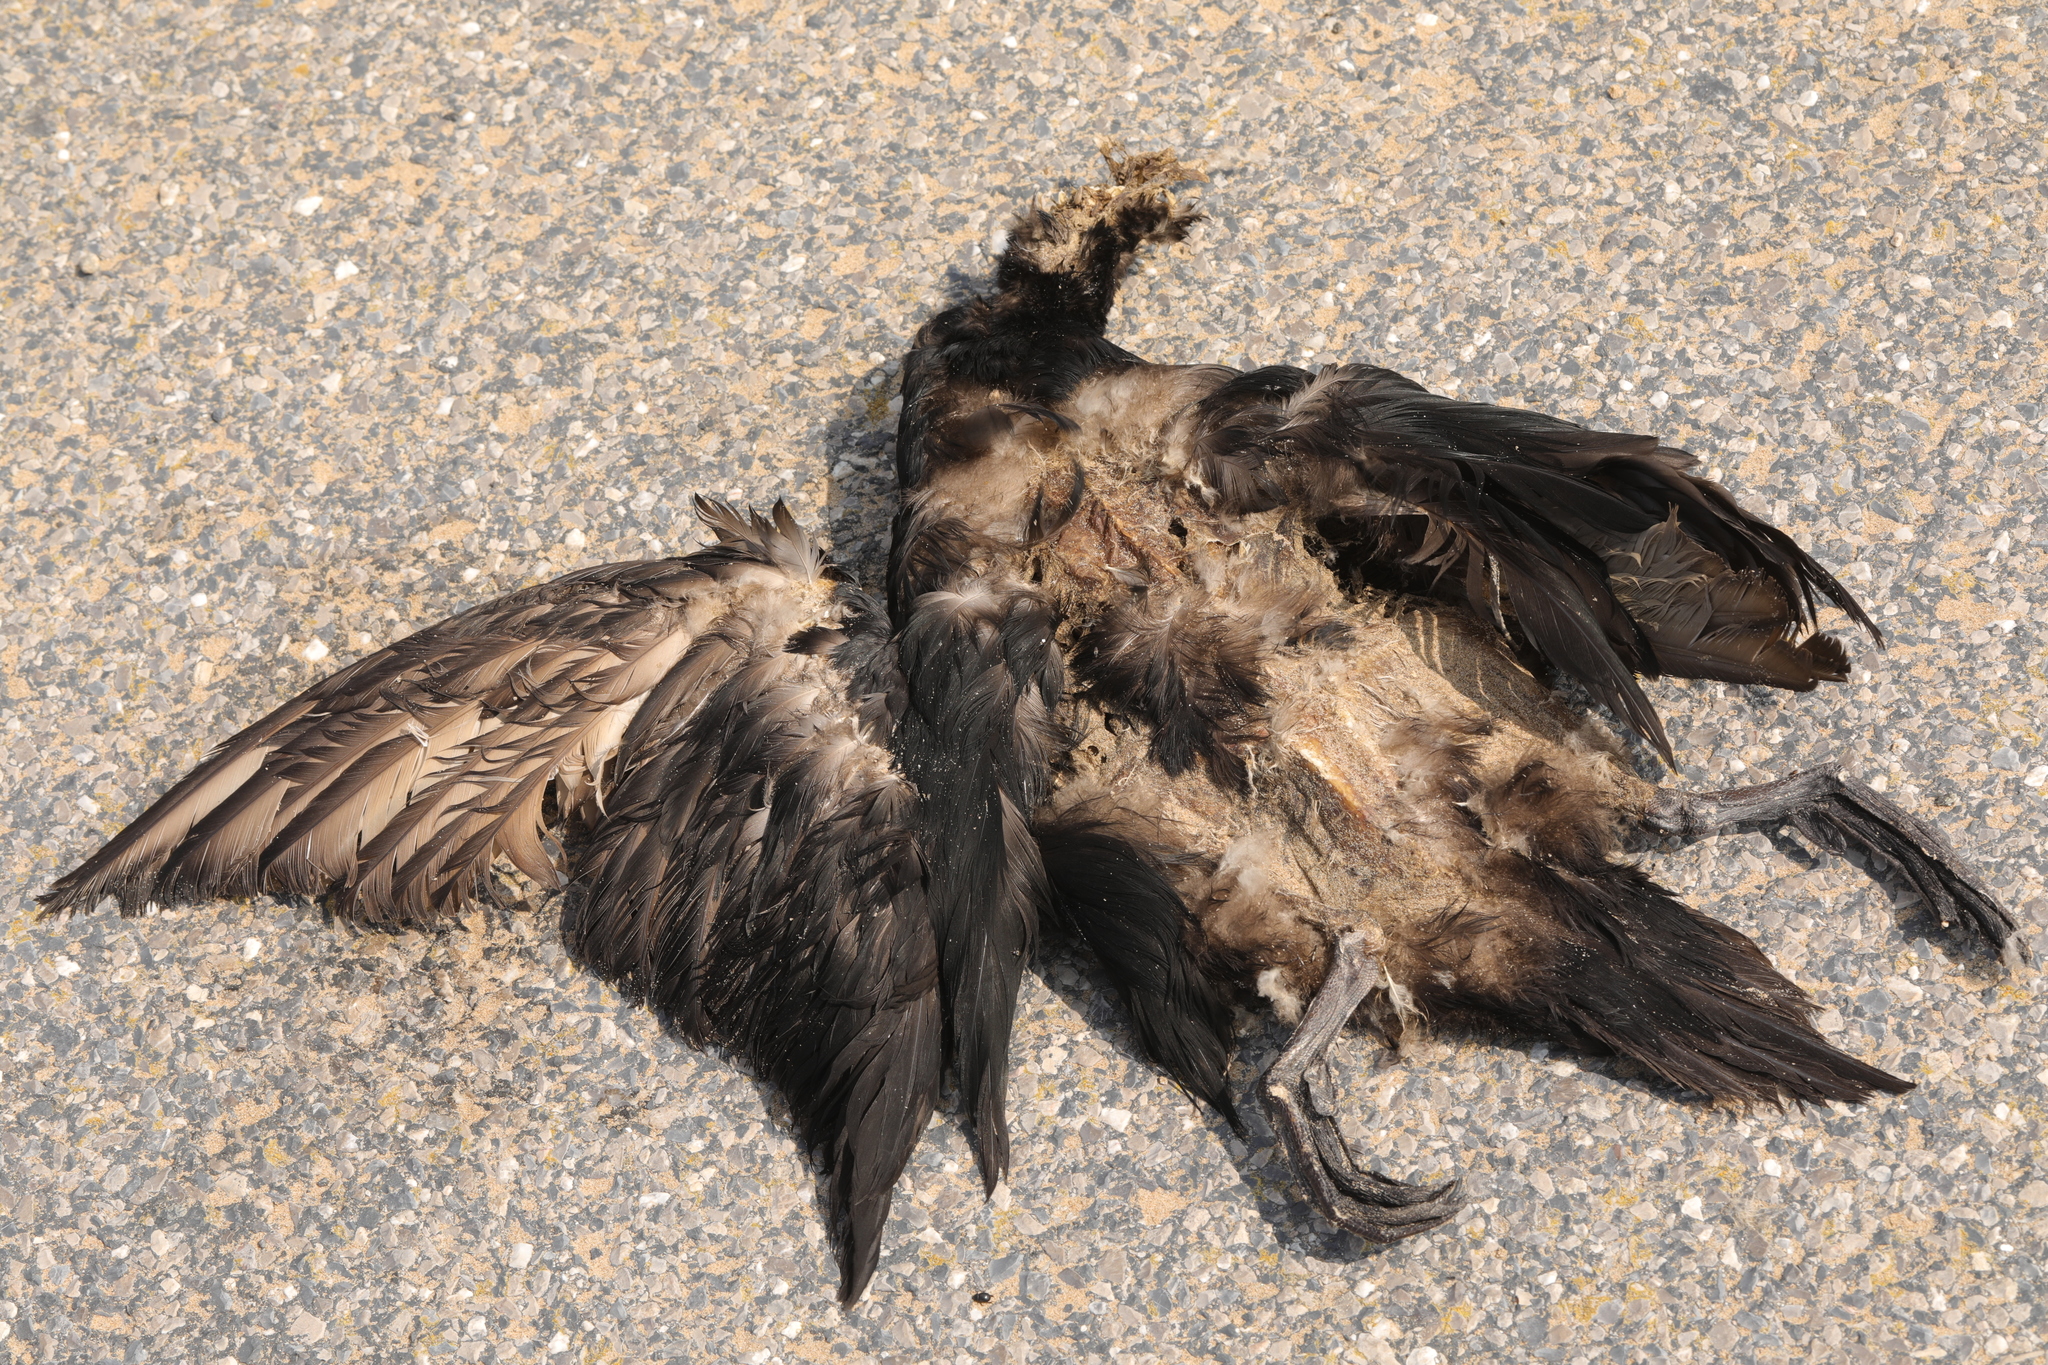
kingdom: Animalia
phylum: Chordata
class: Aves
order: Anseriformes
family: Anatidae
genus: Melanitta
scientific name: Melanitta nigra
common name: Common scoter
